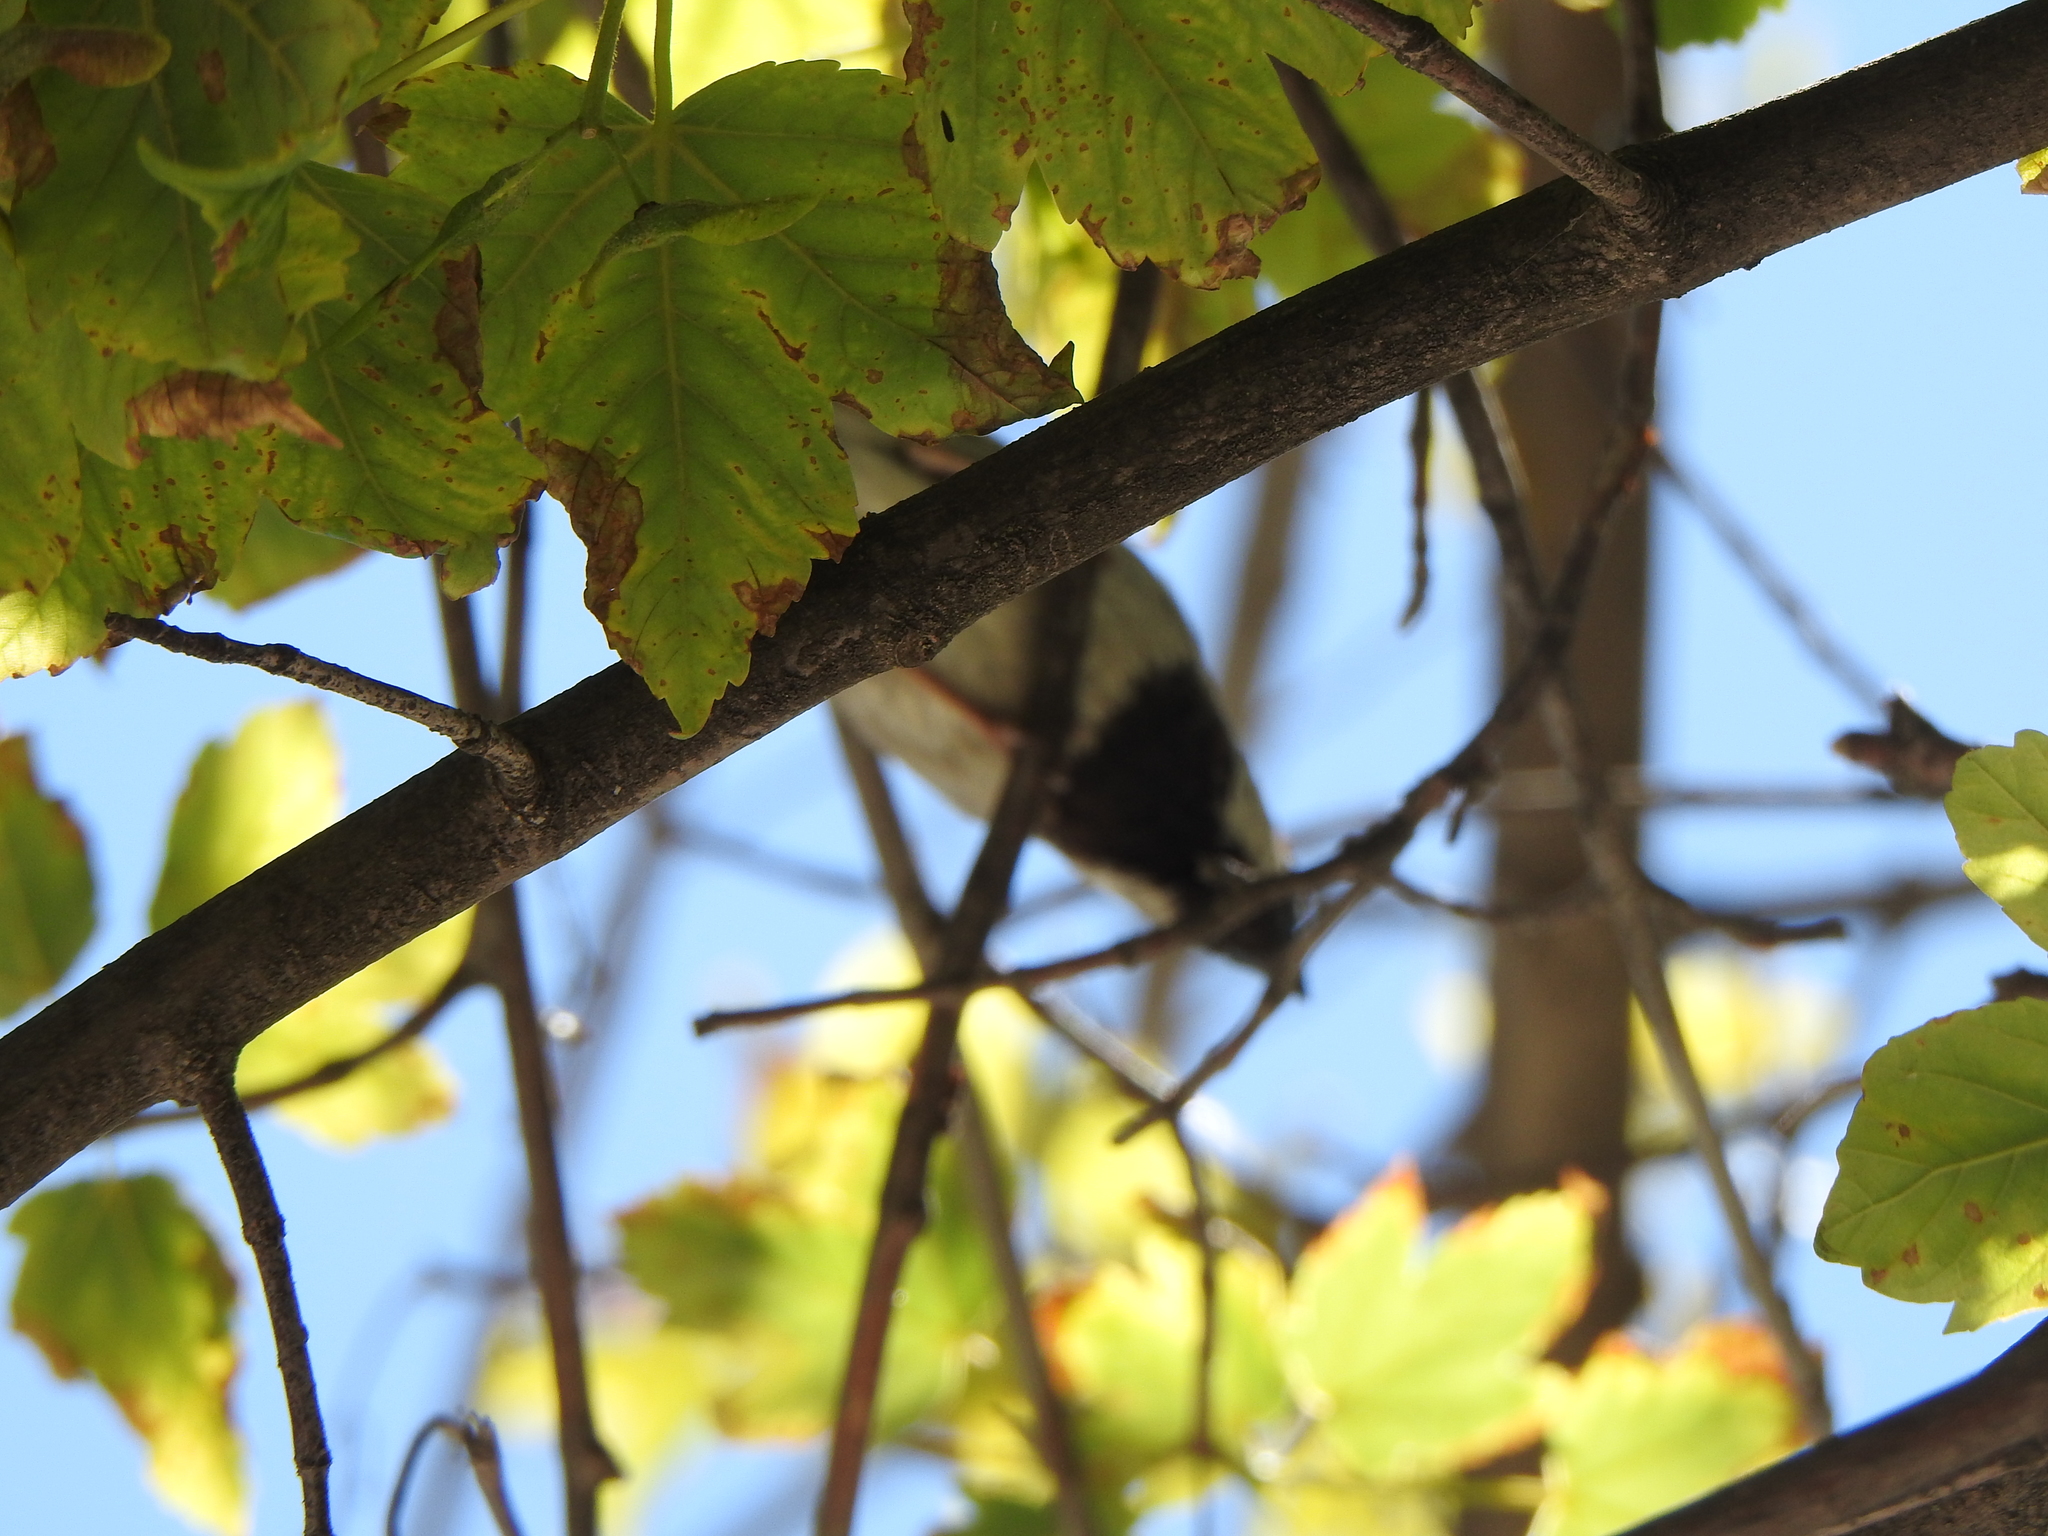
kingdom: Animalia
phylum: Chordata
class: Aves
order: Passeriformes
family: Passeridae
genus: Passer
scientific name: Passer domesticus
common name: House sparrow
